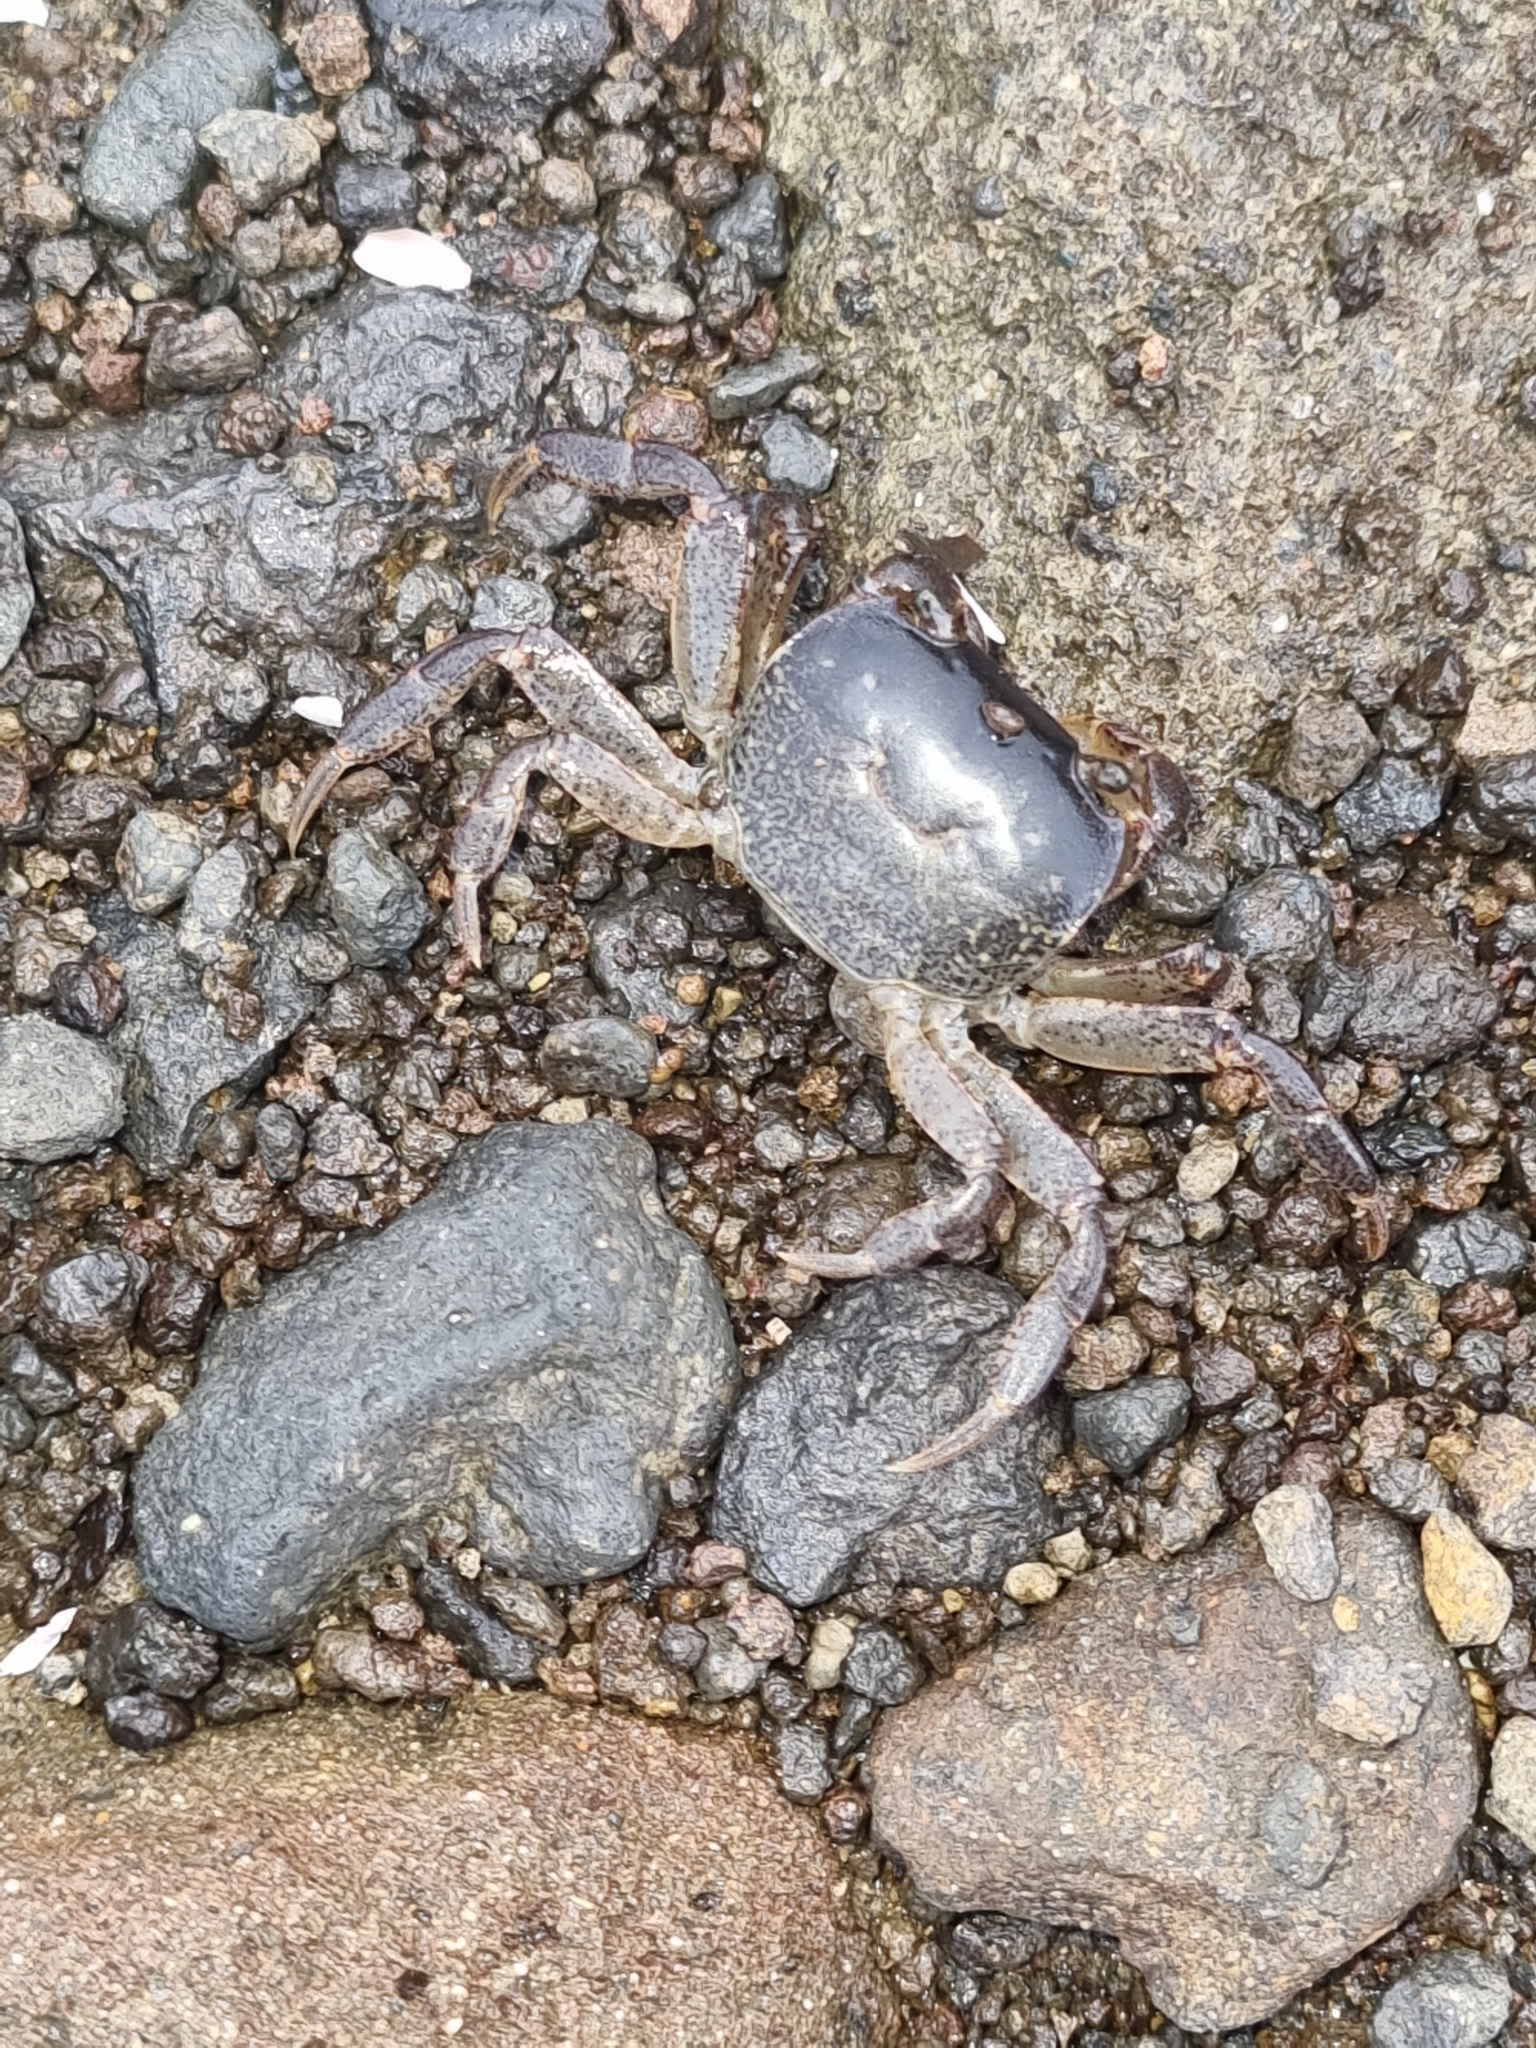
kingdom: Animalia
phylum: Arthropoda
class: Malacostraca
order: Decapoda
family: Varunidae
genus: Cyclograpsus
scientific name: Cyclograpsus lavauxi
